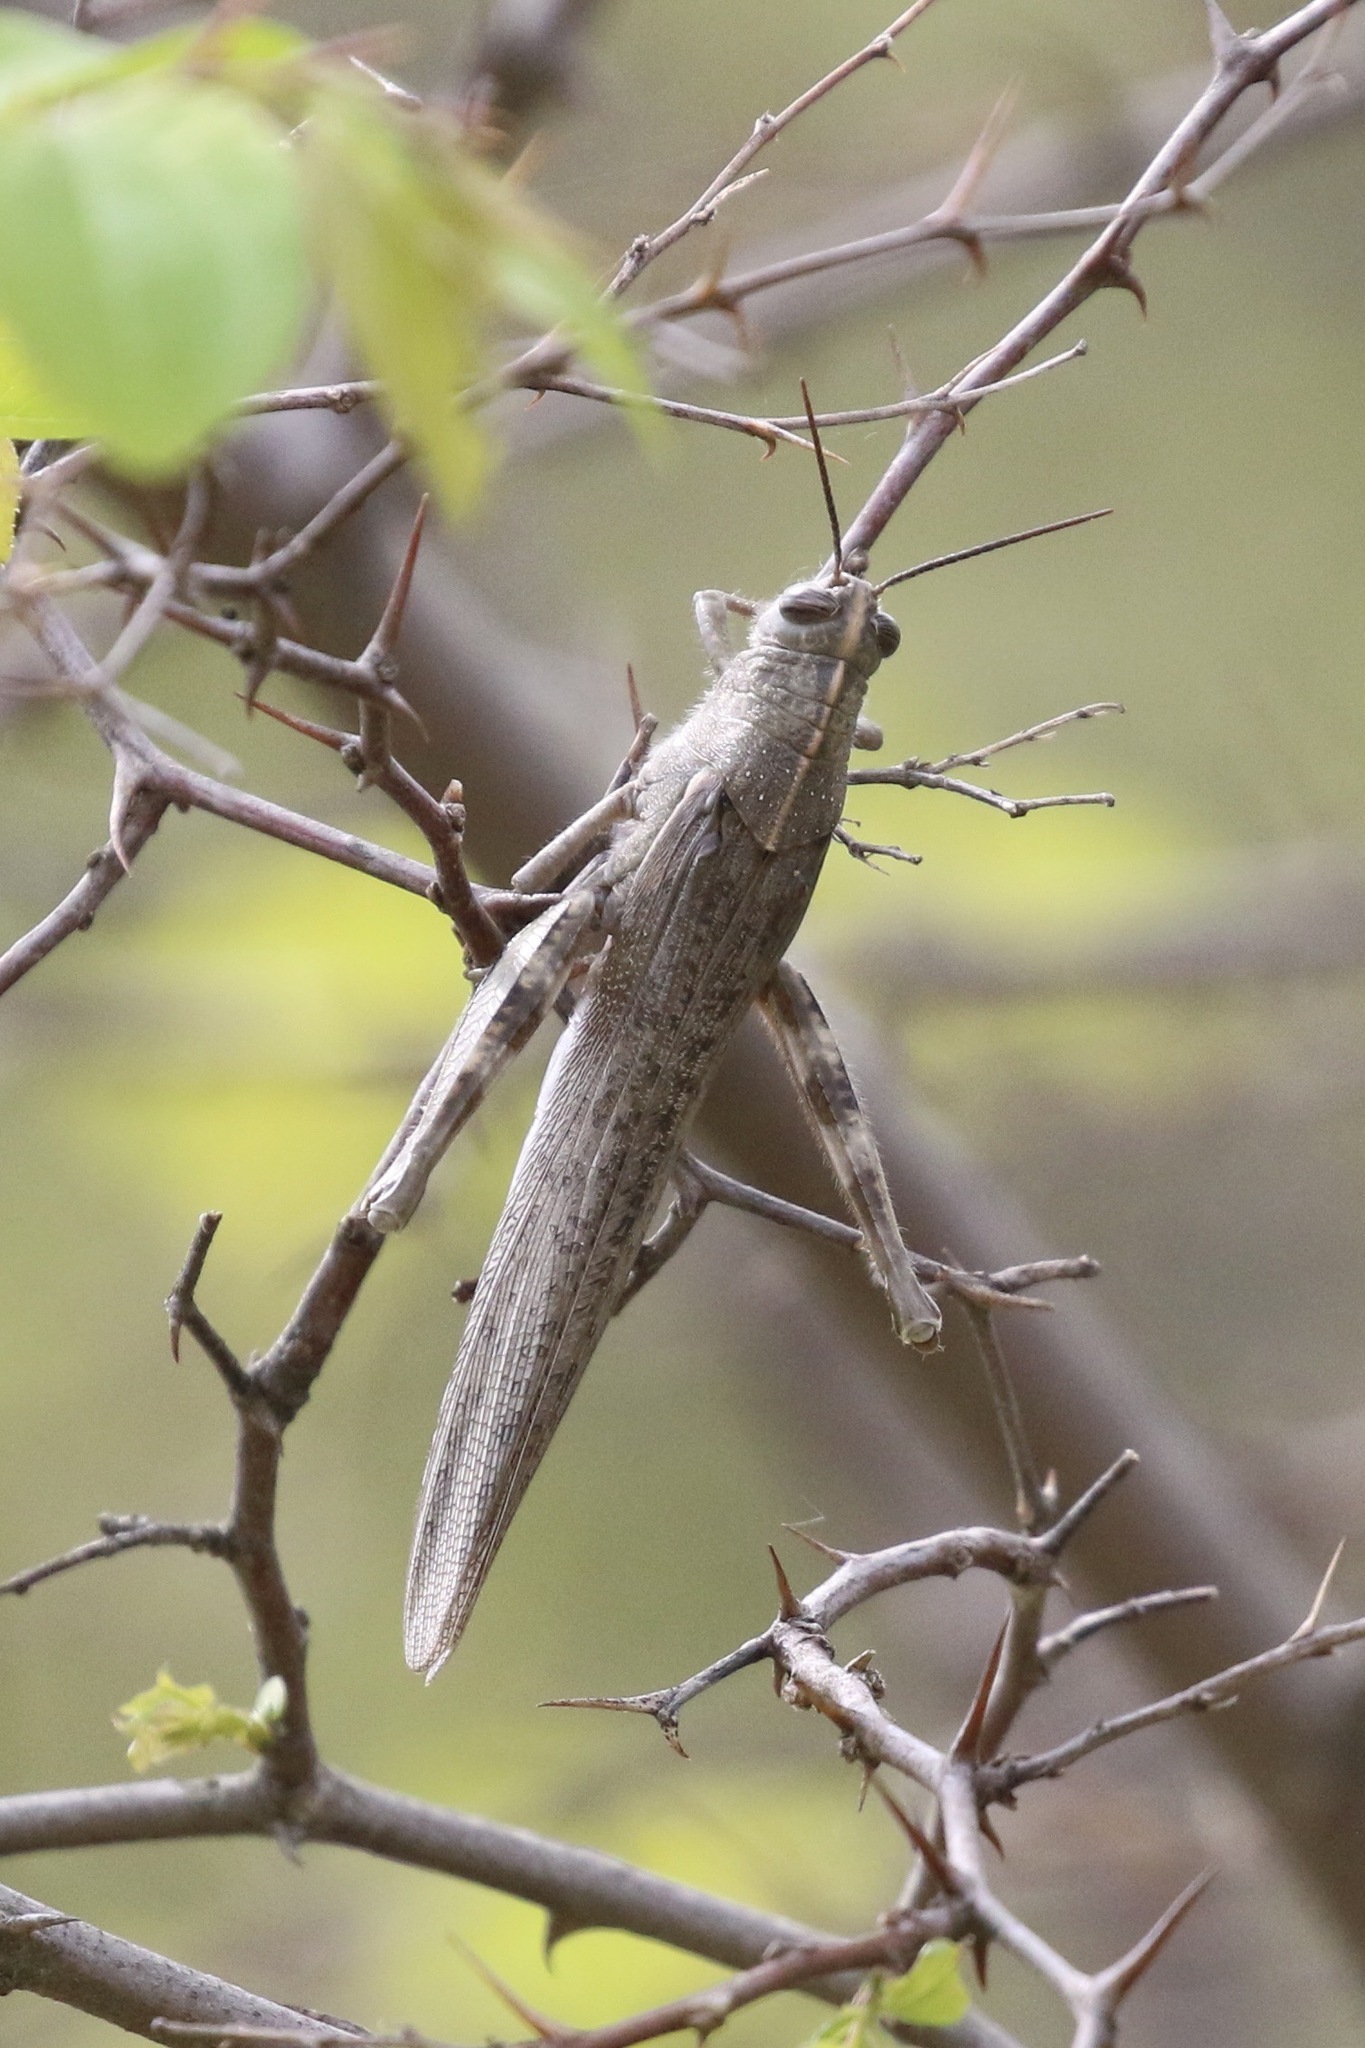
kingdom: Animalia
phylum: Arthropoda
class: Insecta
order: Orthoptera
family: Acrididae
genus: Anacridium
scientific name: Anacridium aegyptium
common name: Egyptian grasshopper
